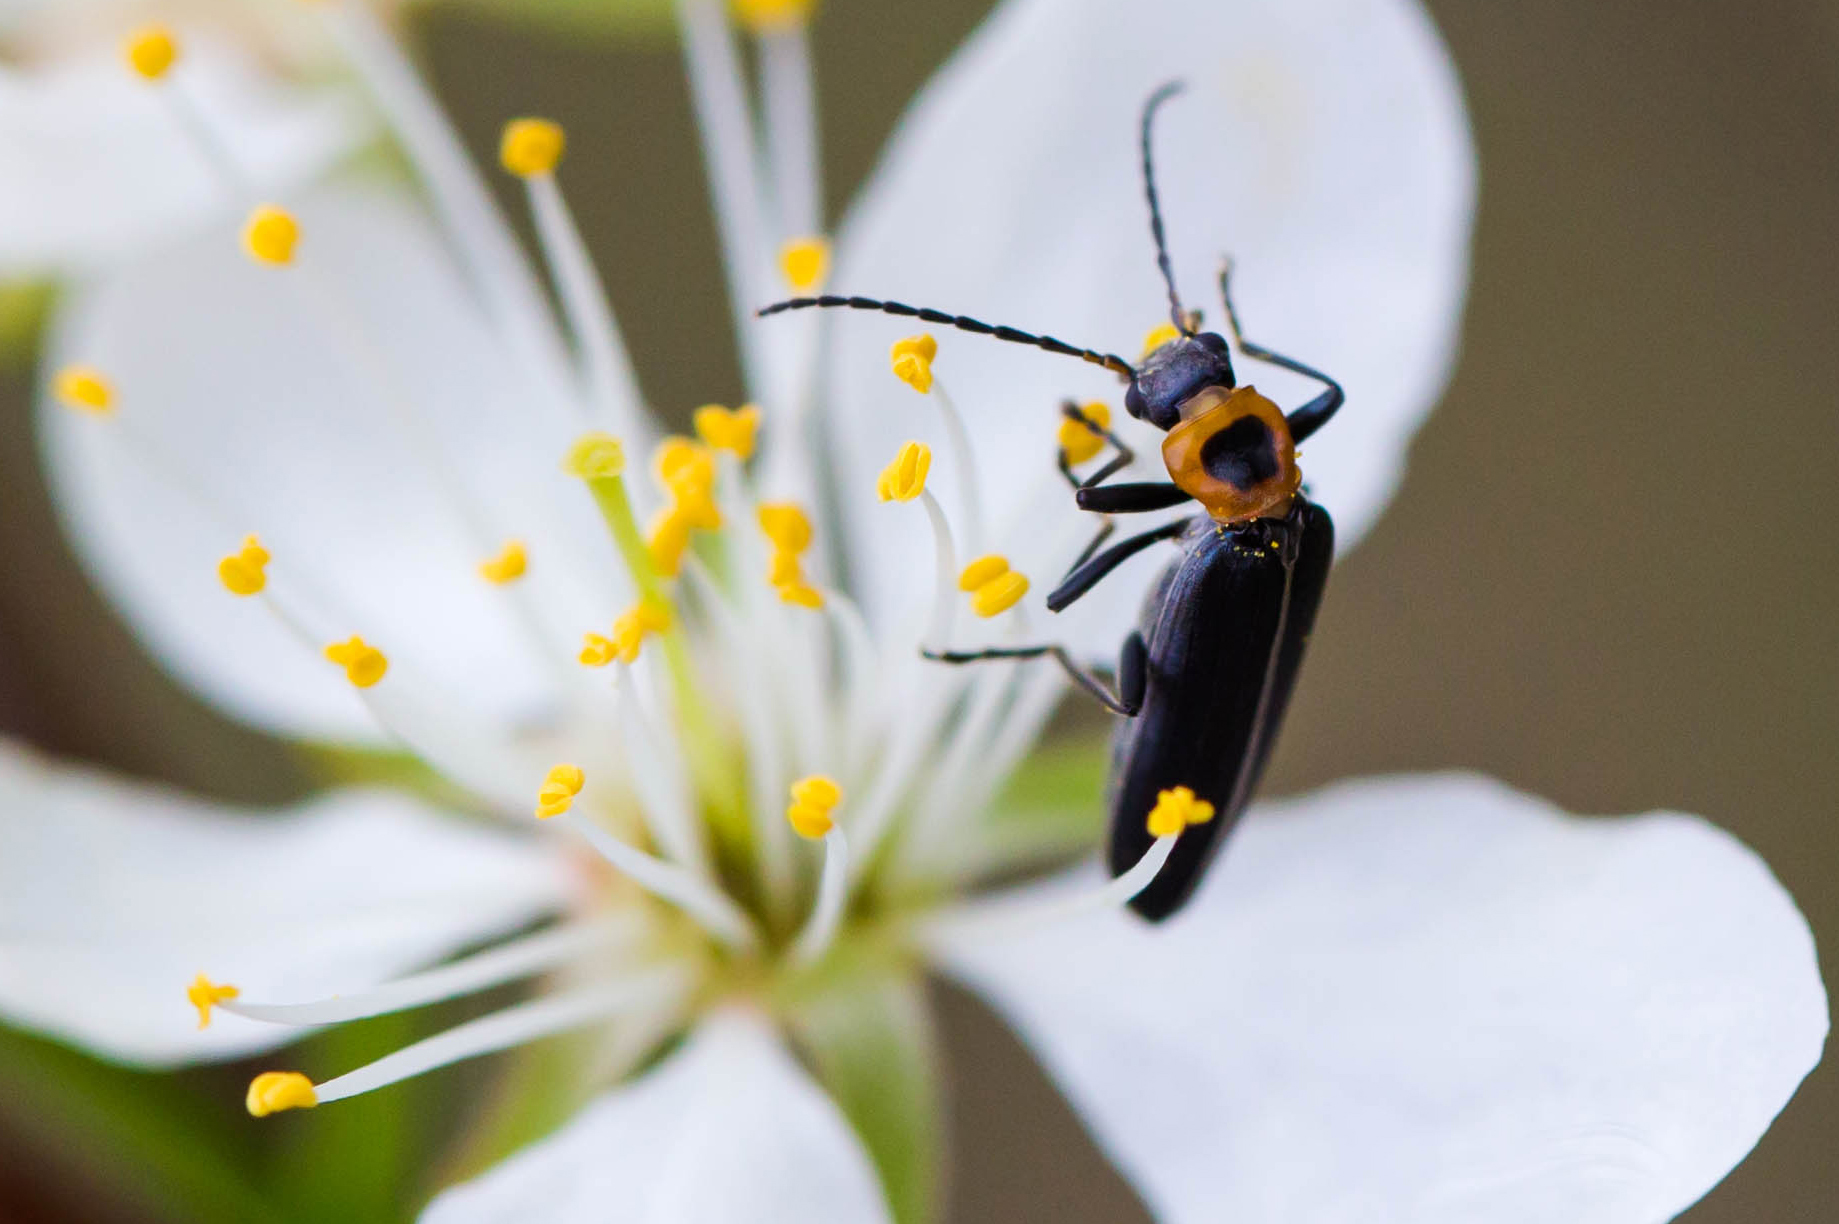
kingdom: Animalia
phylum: Arthropoda
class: Insecta
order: Coleoptera
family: Oedemeridae
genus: Ischnomera
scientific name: Ischnomera
